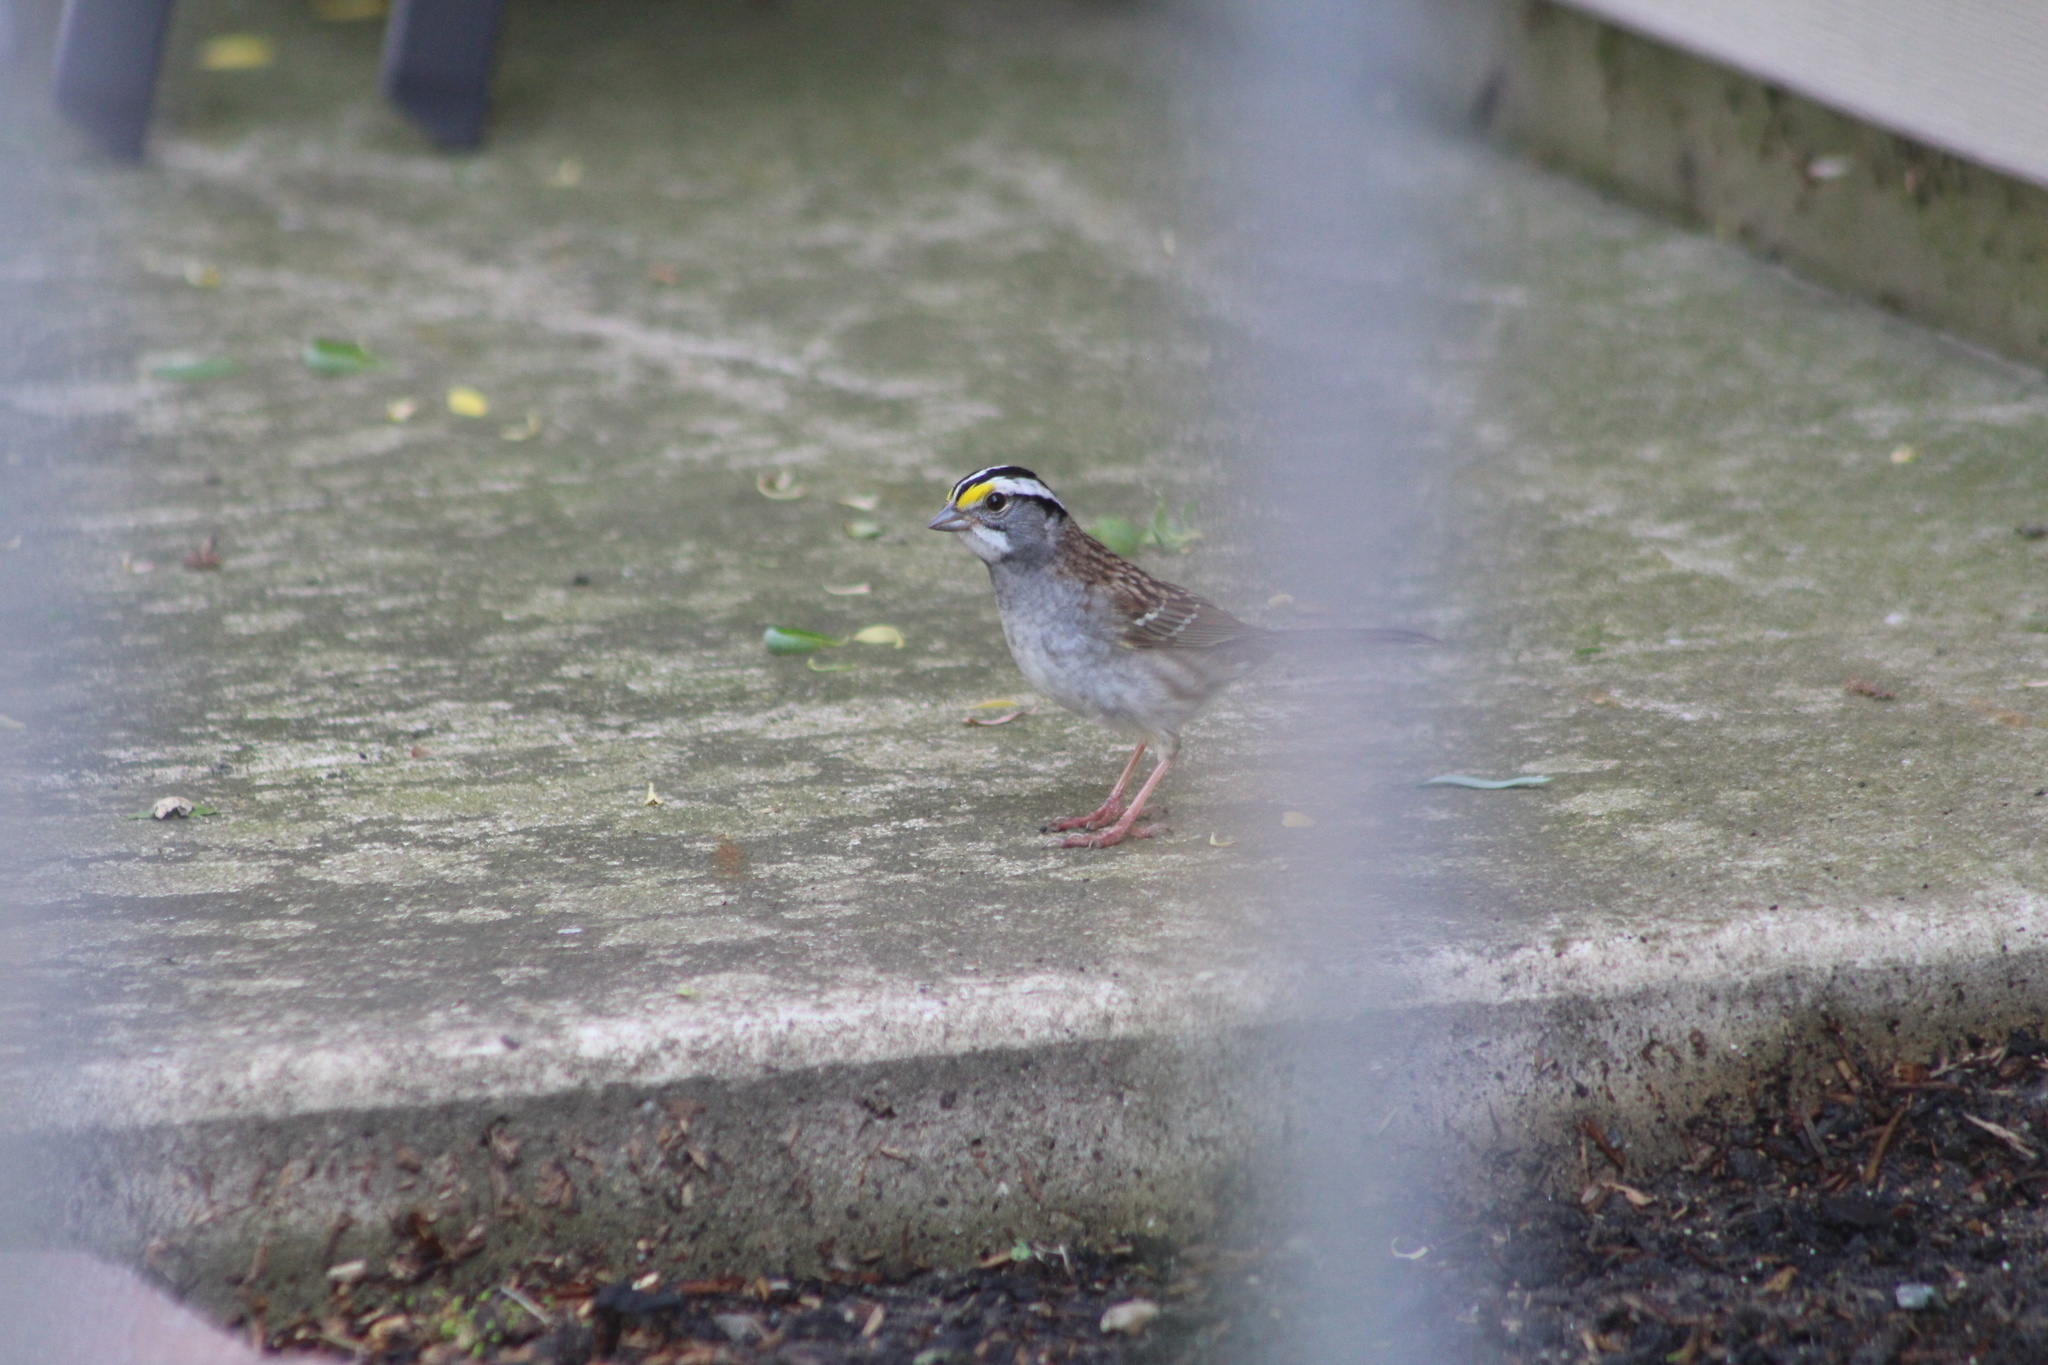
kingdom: Animalia
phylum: Chordata
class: Aves
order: Passeriformes
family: Passerellidae
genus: Zonotrichia
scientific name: Zonotrichia albicollis
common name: White-throated sparrow
